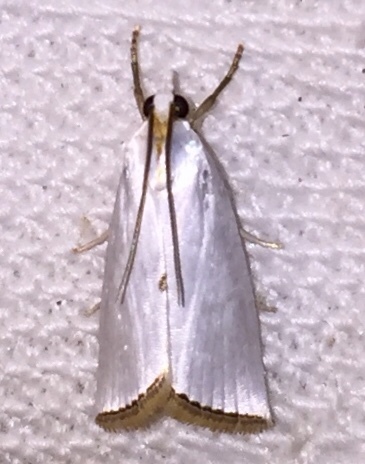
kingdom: Animalia
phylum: Arthropoda
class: Insecta
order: Lepidoptera
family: Crambidae
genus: Argyria
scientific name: Argyria nivalis
